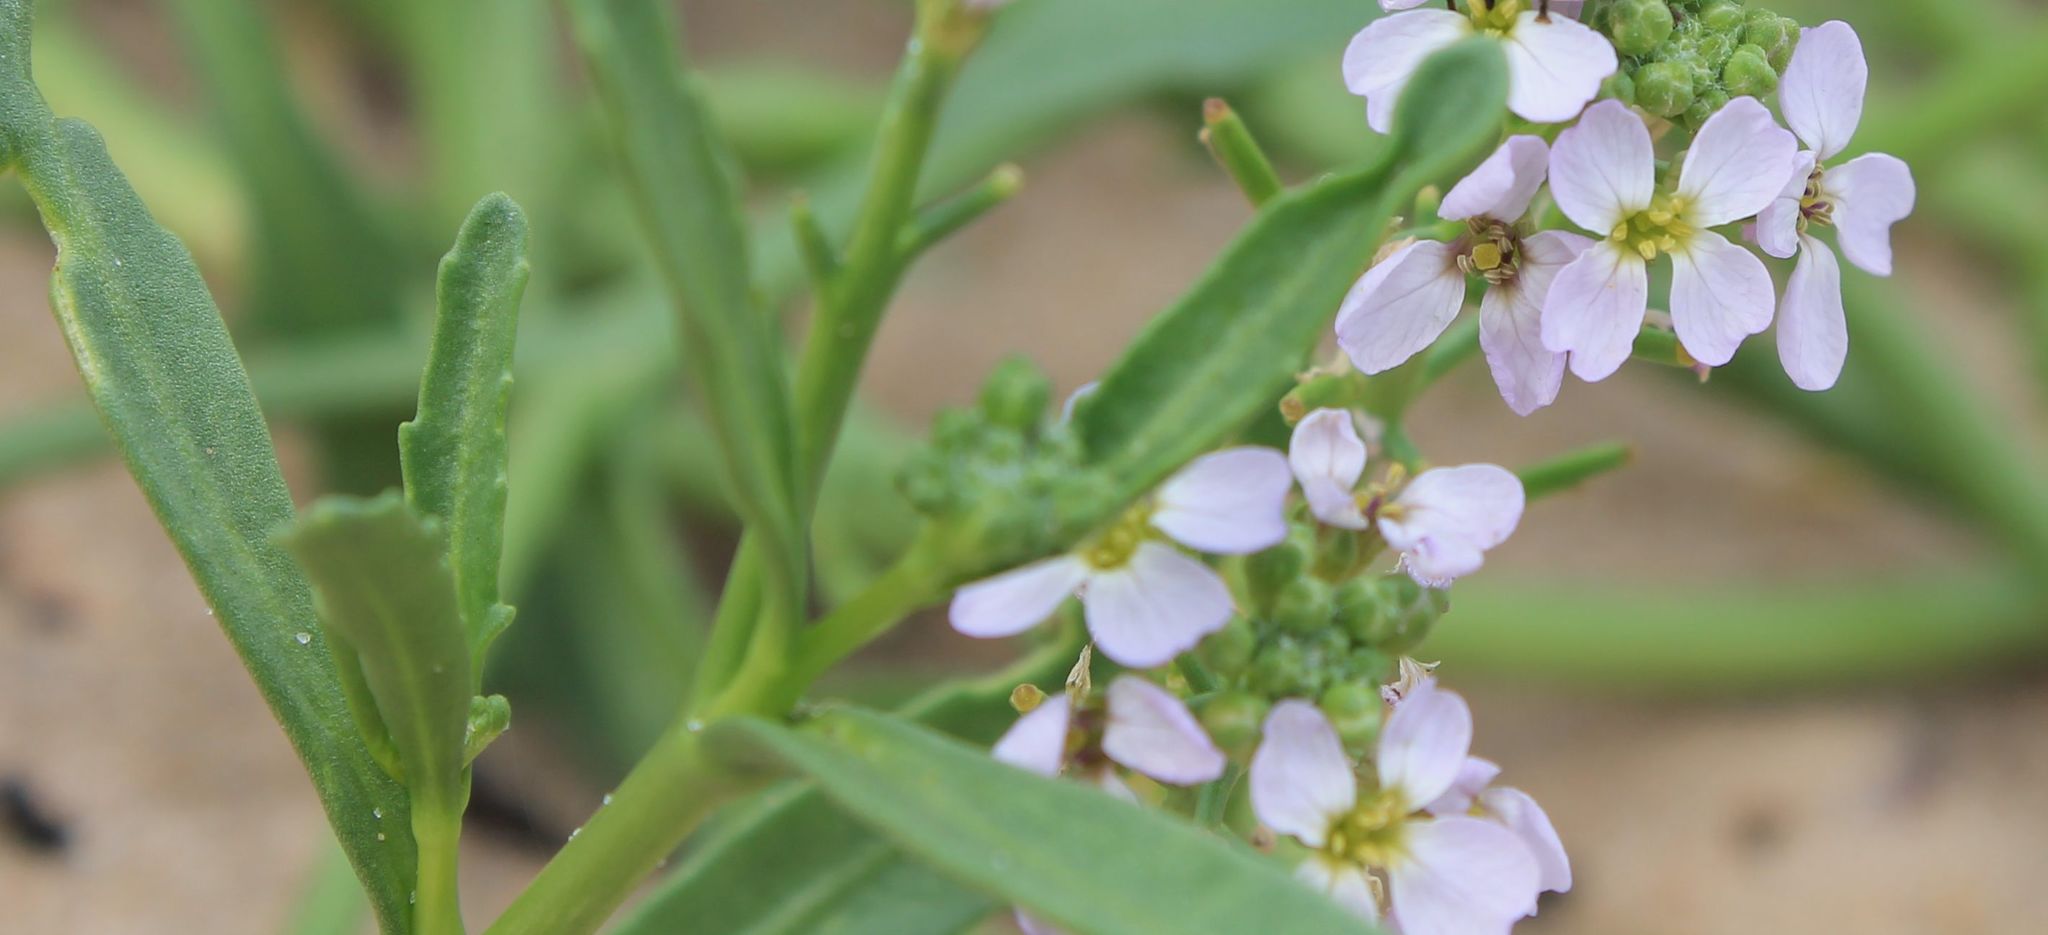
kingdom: Plantae
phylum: Tracheophyta
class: Magnoliopsida
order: Brassicales
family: Brassicaceae
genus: Cakile
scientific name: Cakile maritima
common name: Sea rocket
